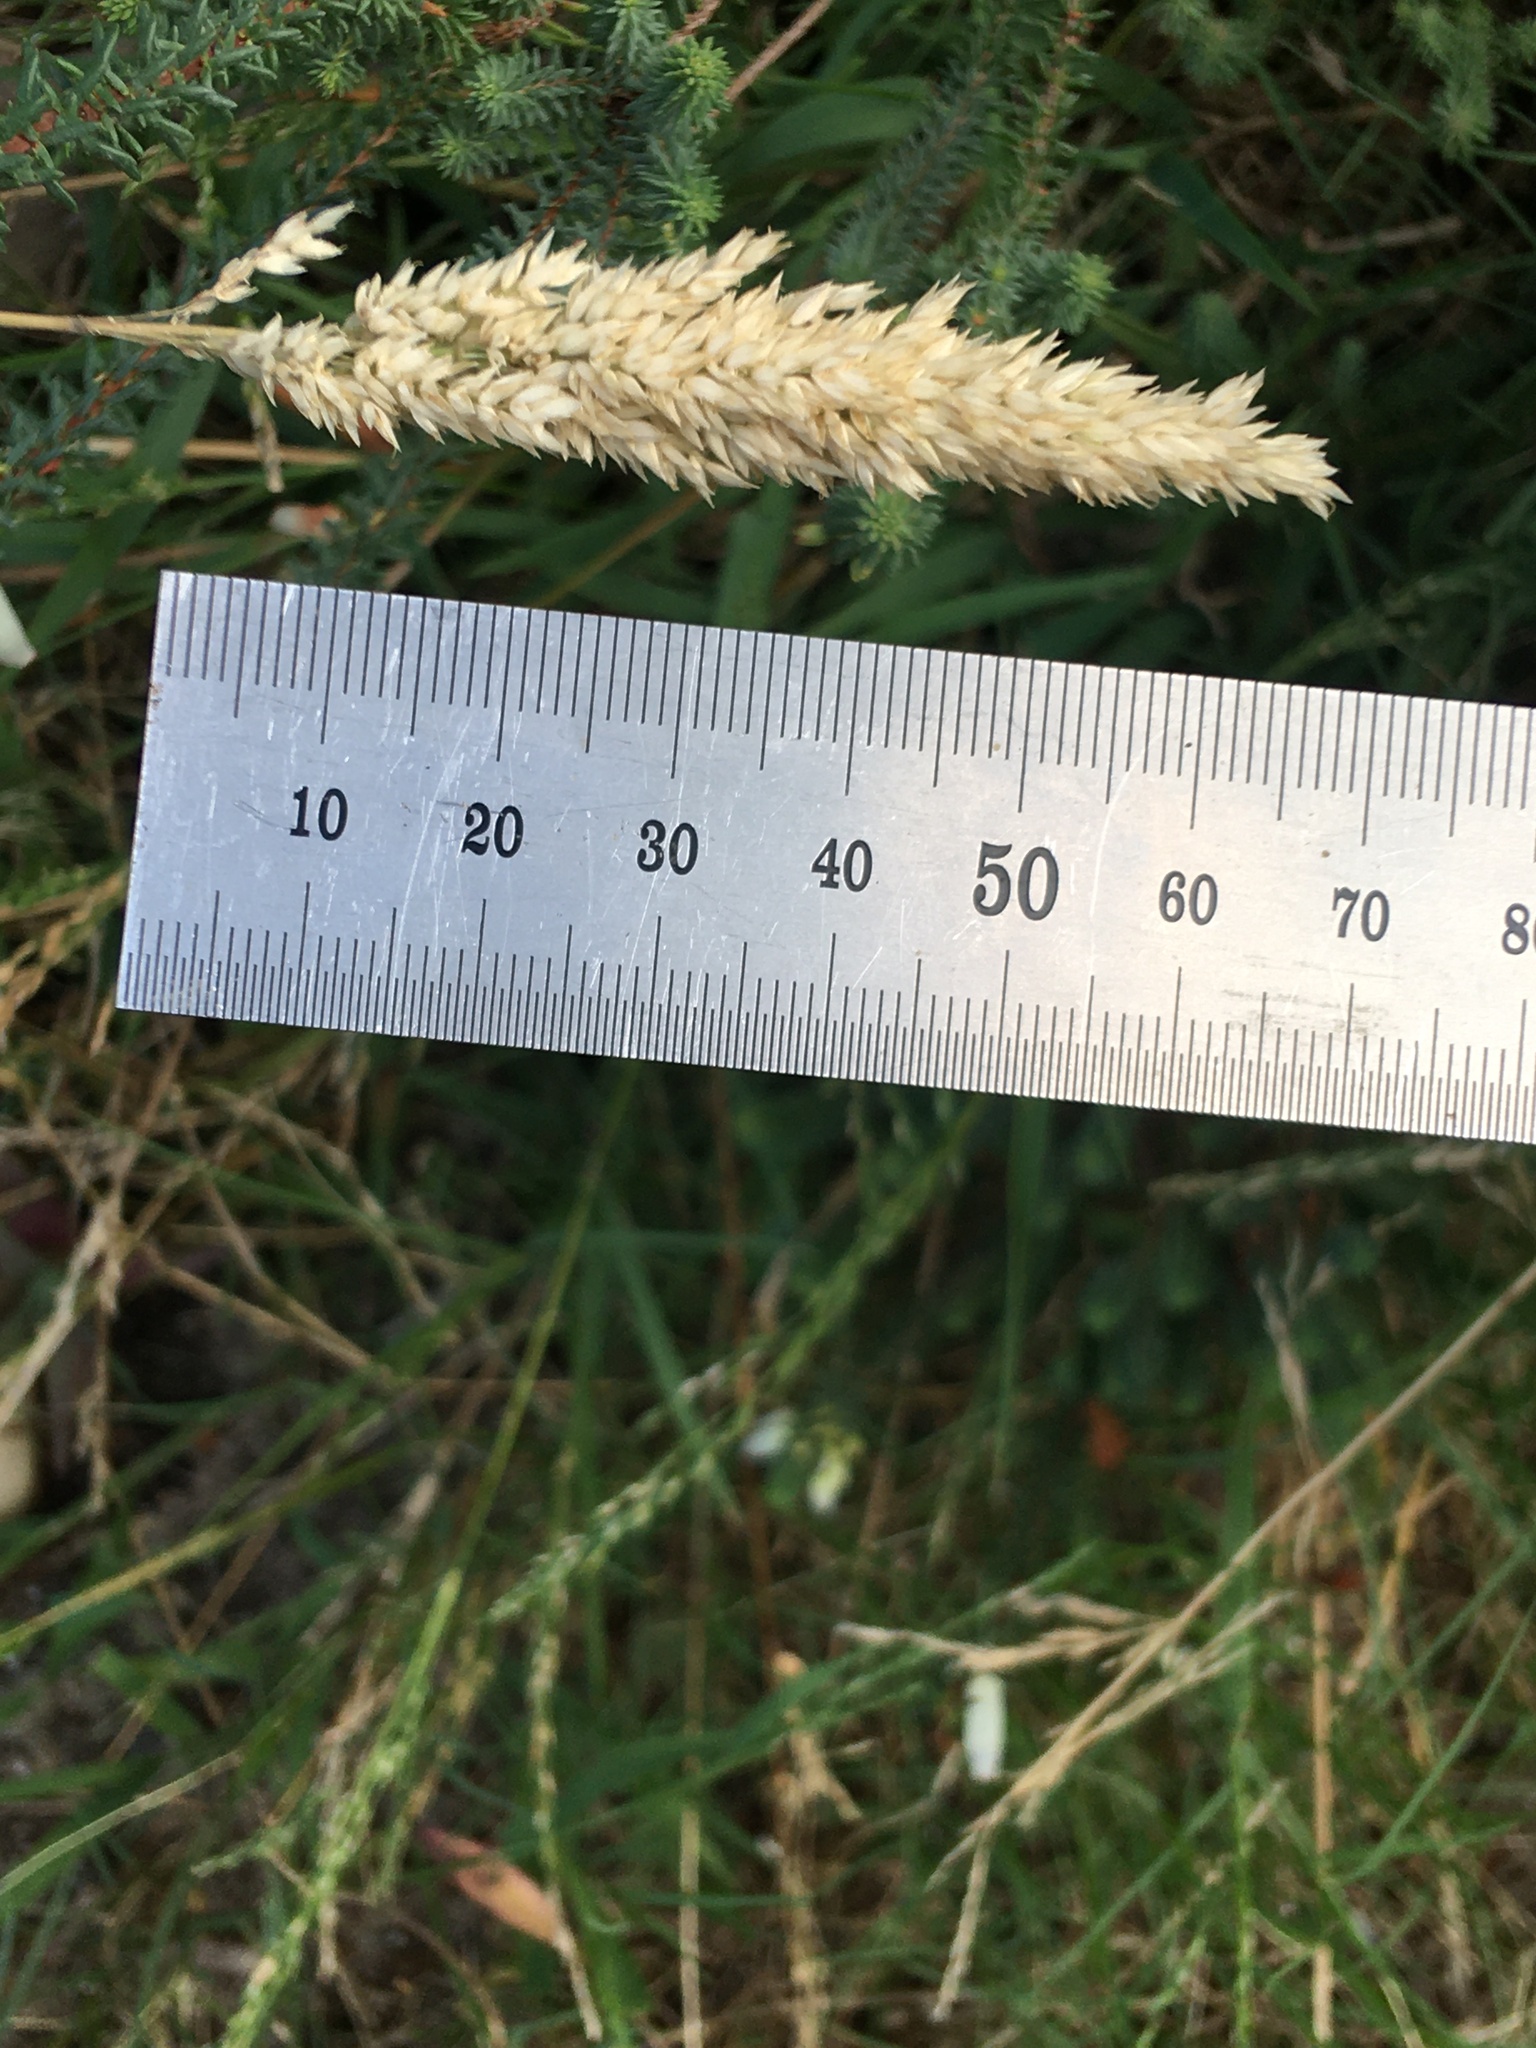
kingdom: Animalia
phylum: Arthropoda
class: Insecta
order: Odonata
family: Coenagrionidae
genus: Ischnura
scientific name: Ischnura senegalensis
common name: Tropical bluetail
